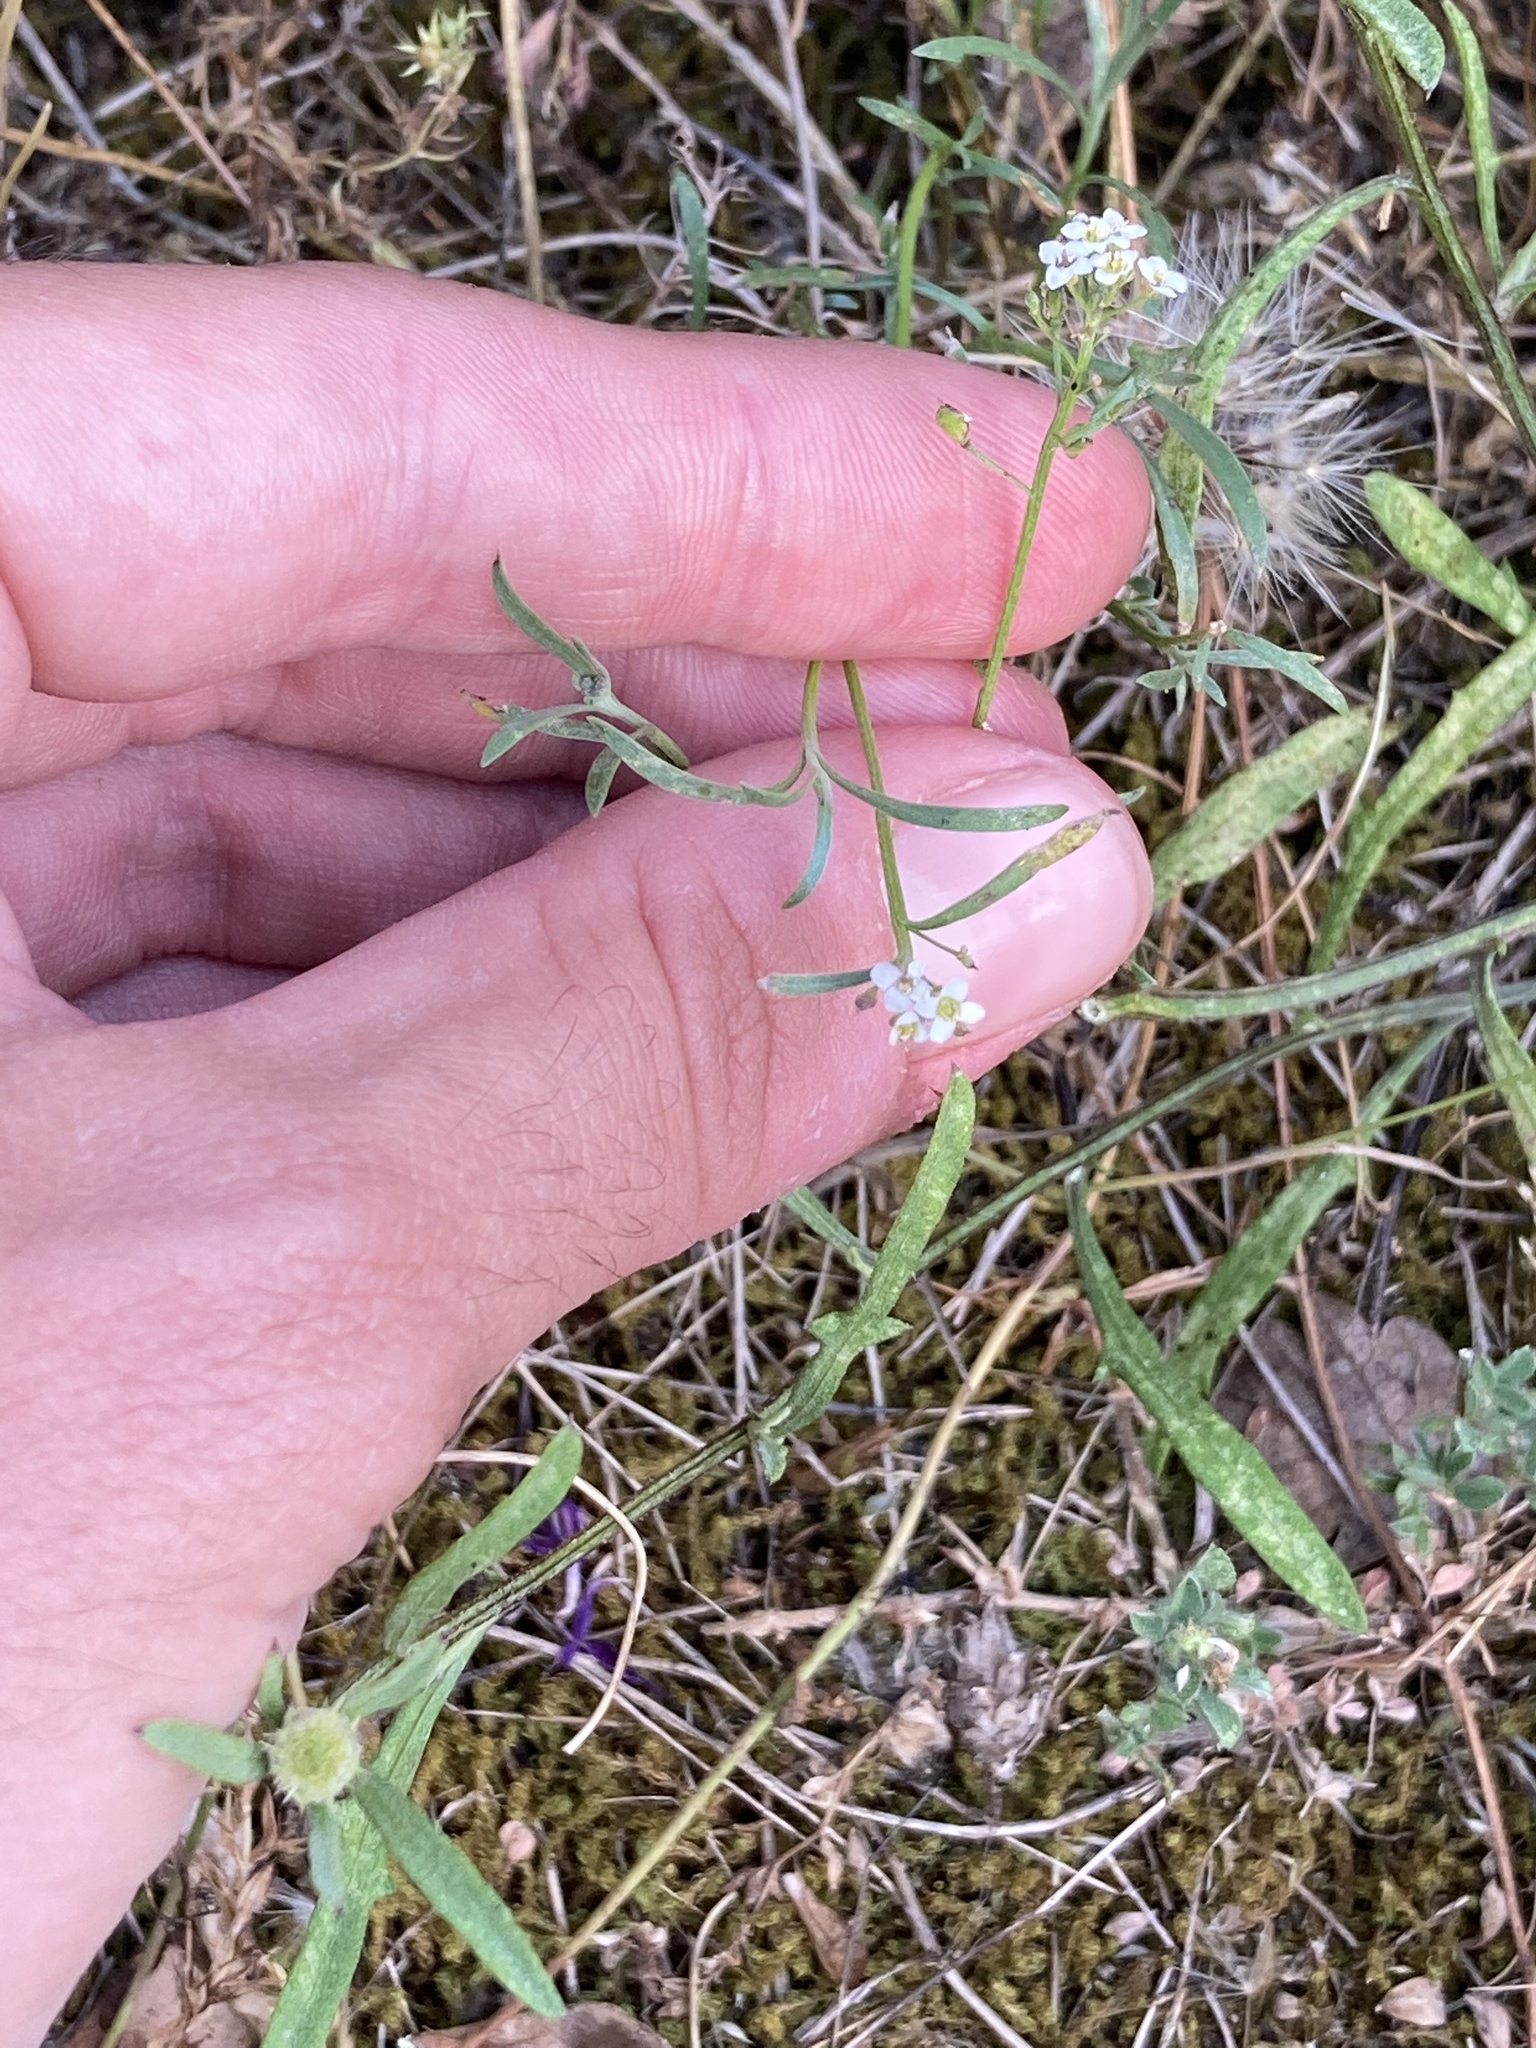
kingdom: Plantae
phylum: Tracheophyta
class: Magnoliopsida
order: Brassicales
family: Brassicaceae
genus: Lobularia
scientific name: Lobularia maritima
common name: Sweet alison
